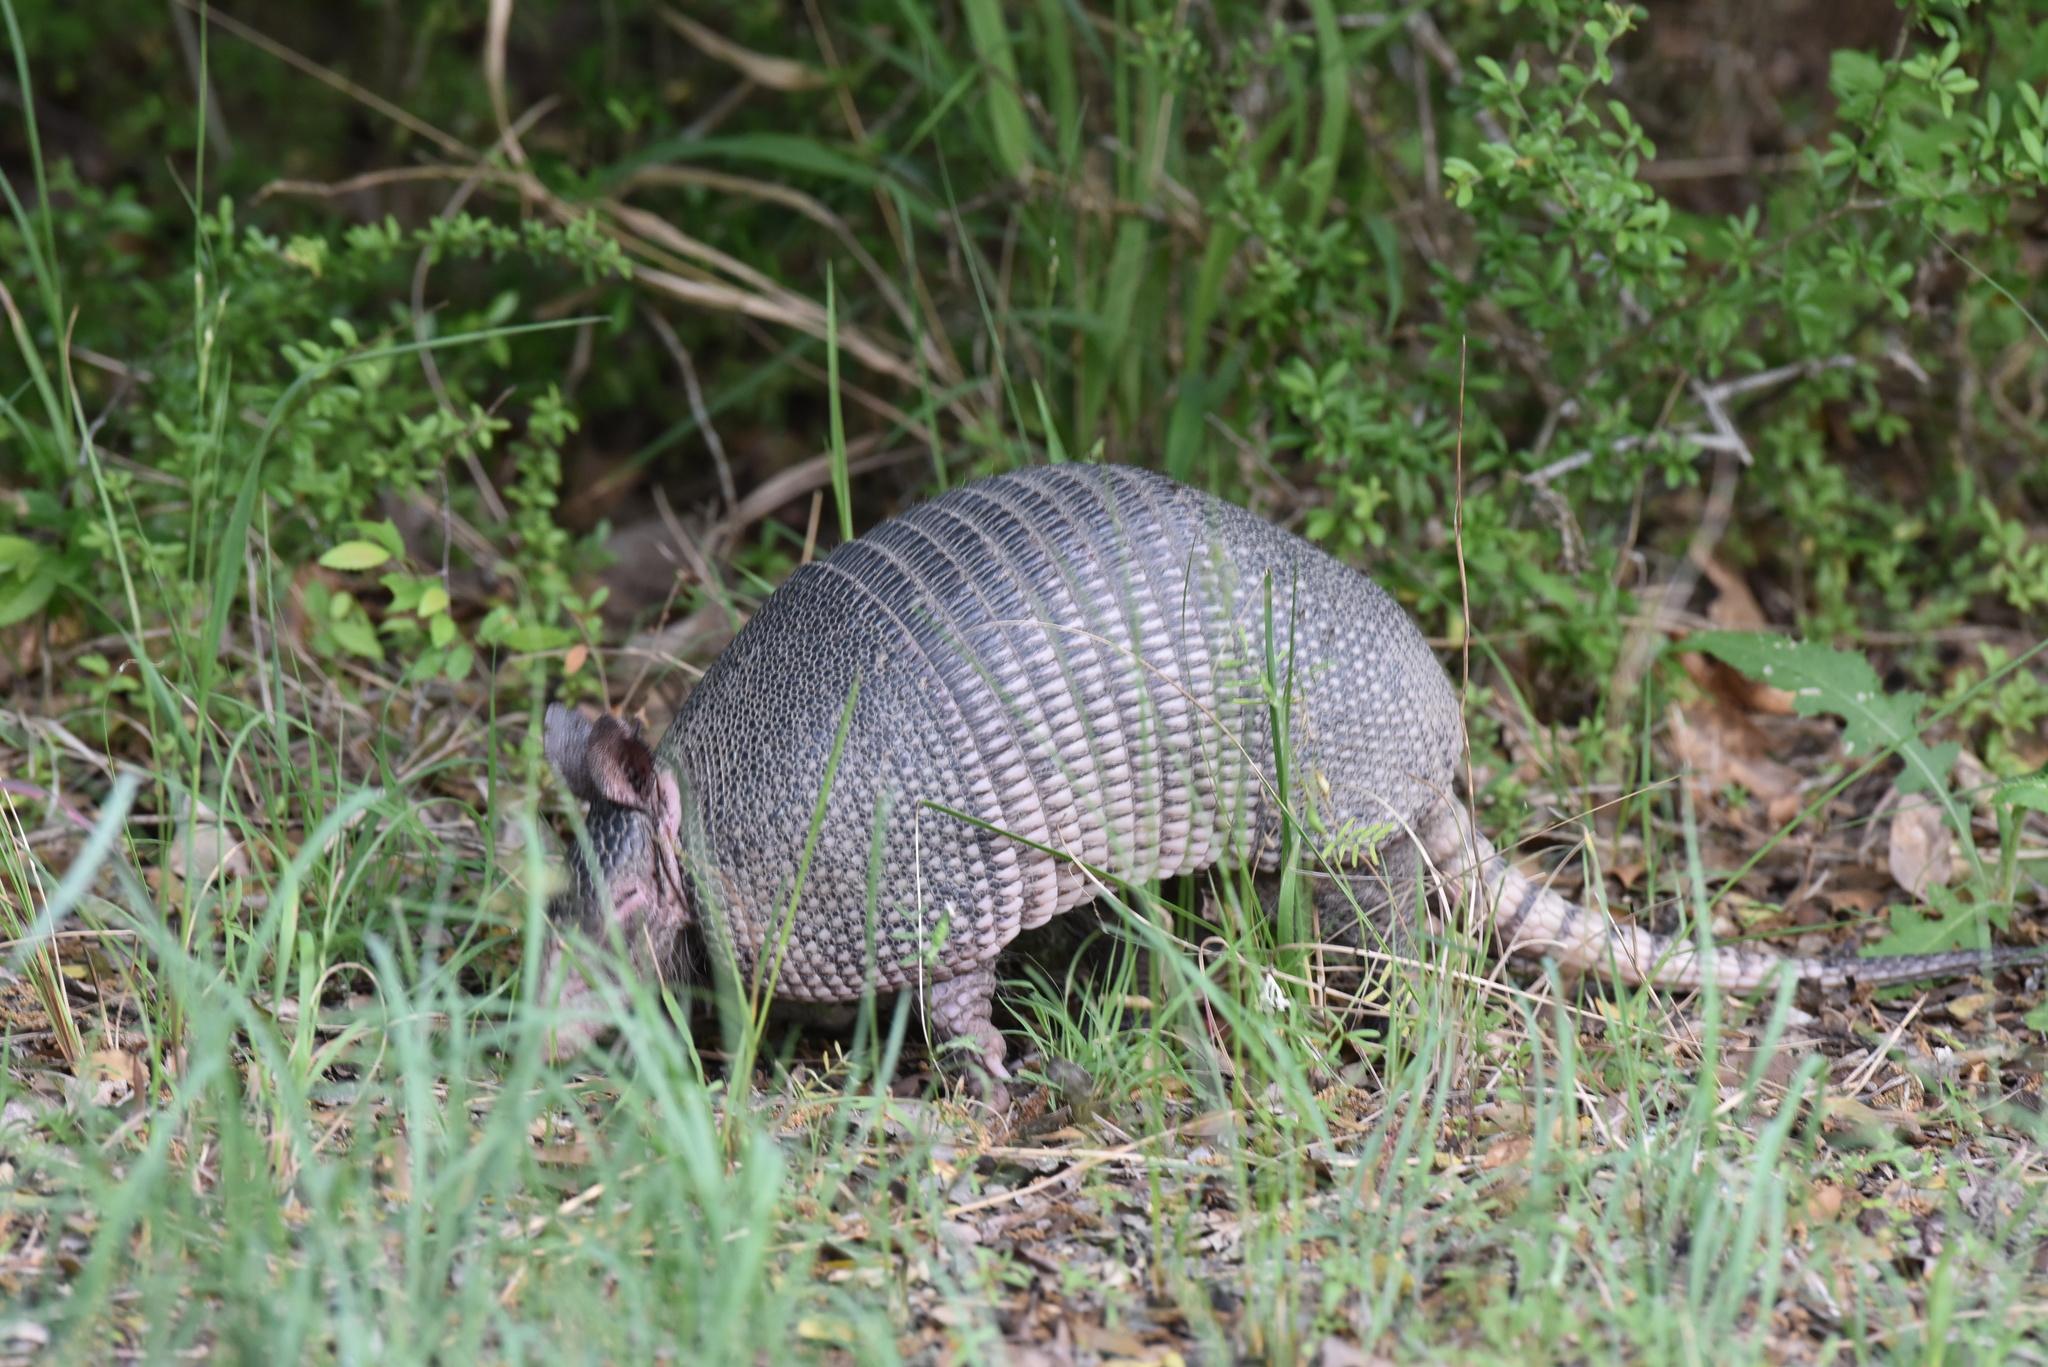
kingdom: Animalia
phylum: Chordata
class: Mammalia
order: Cingulata
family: Dasypodidae
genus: Dasypus
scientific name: Dasypus novemcinctus
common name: Nine-banded armadillo
